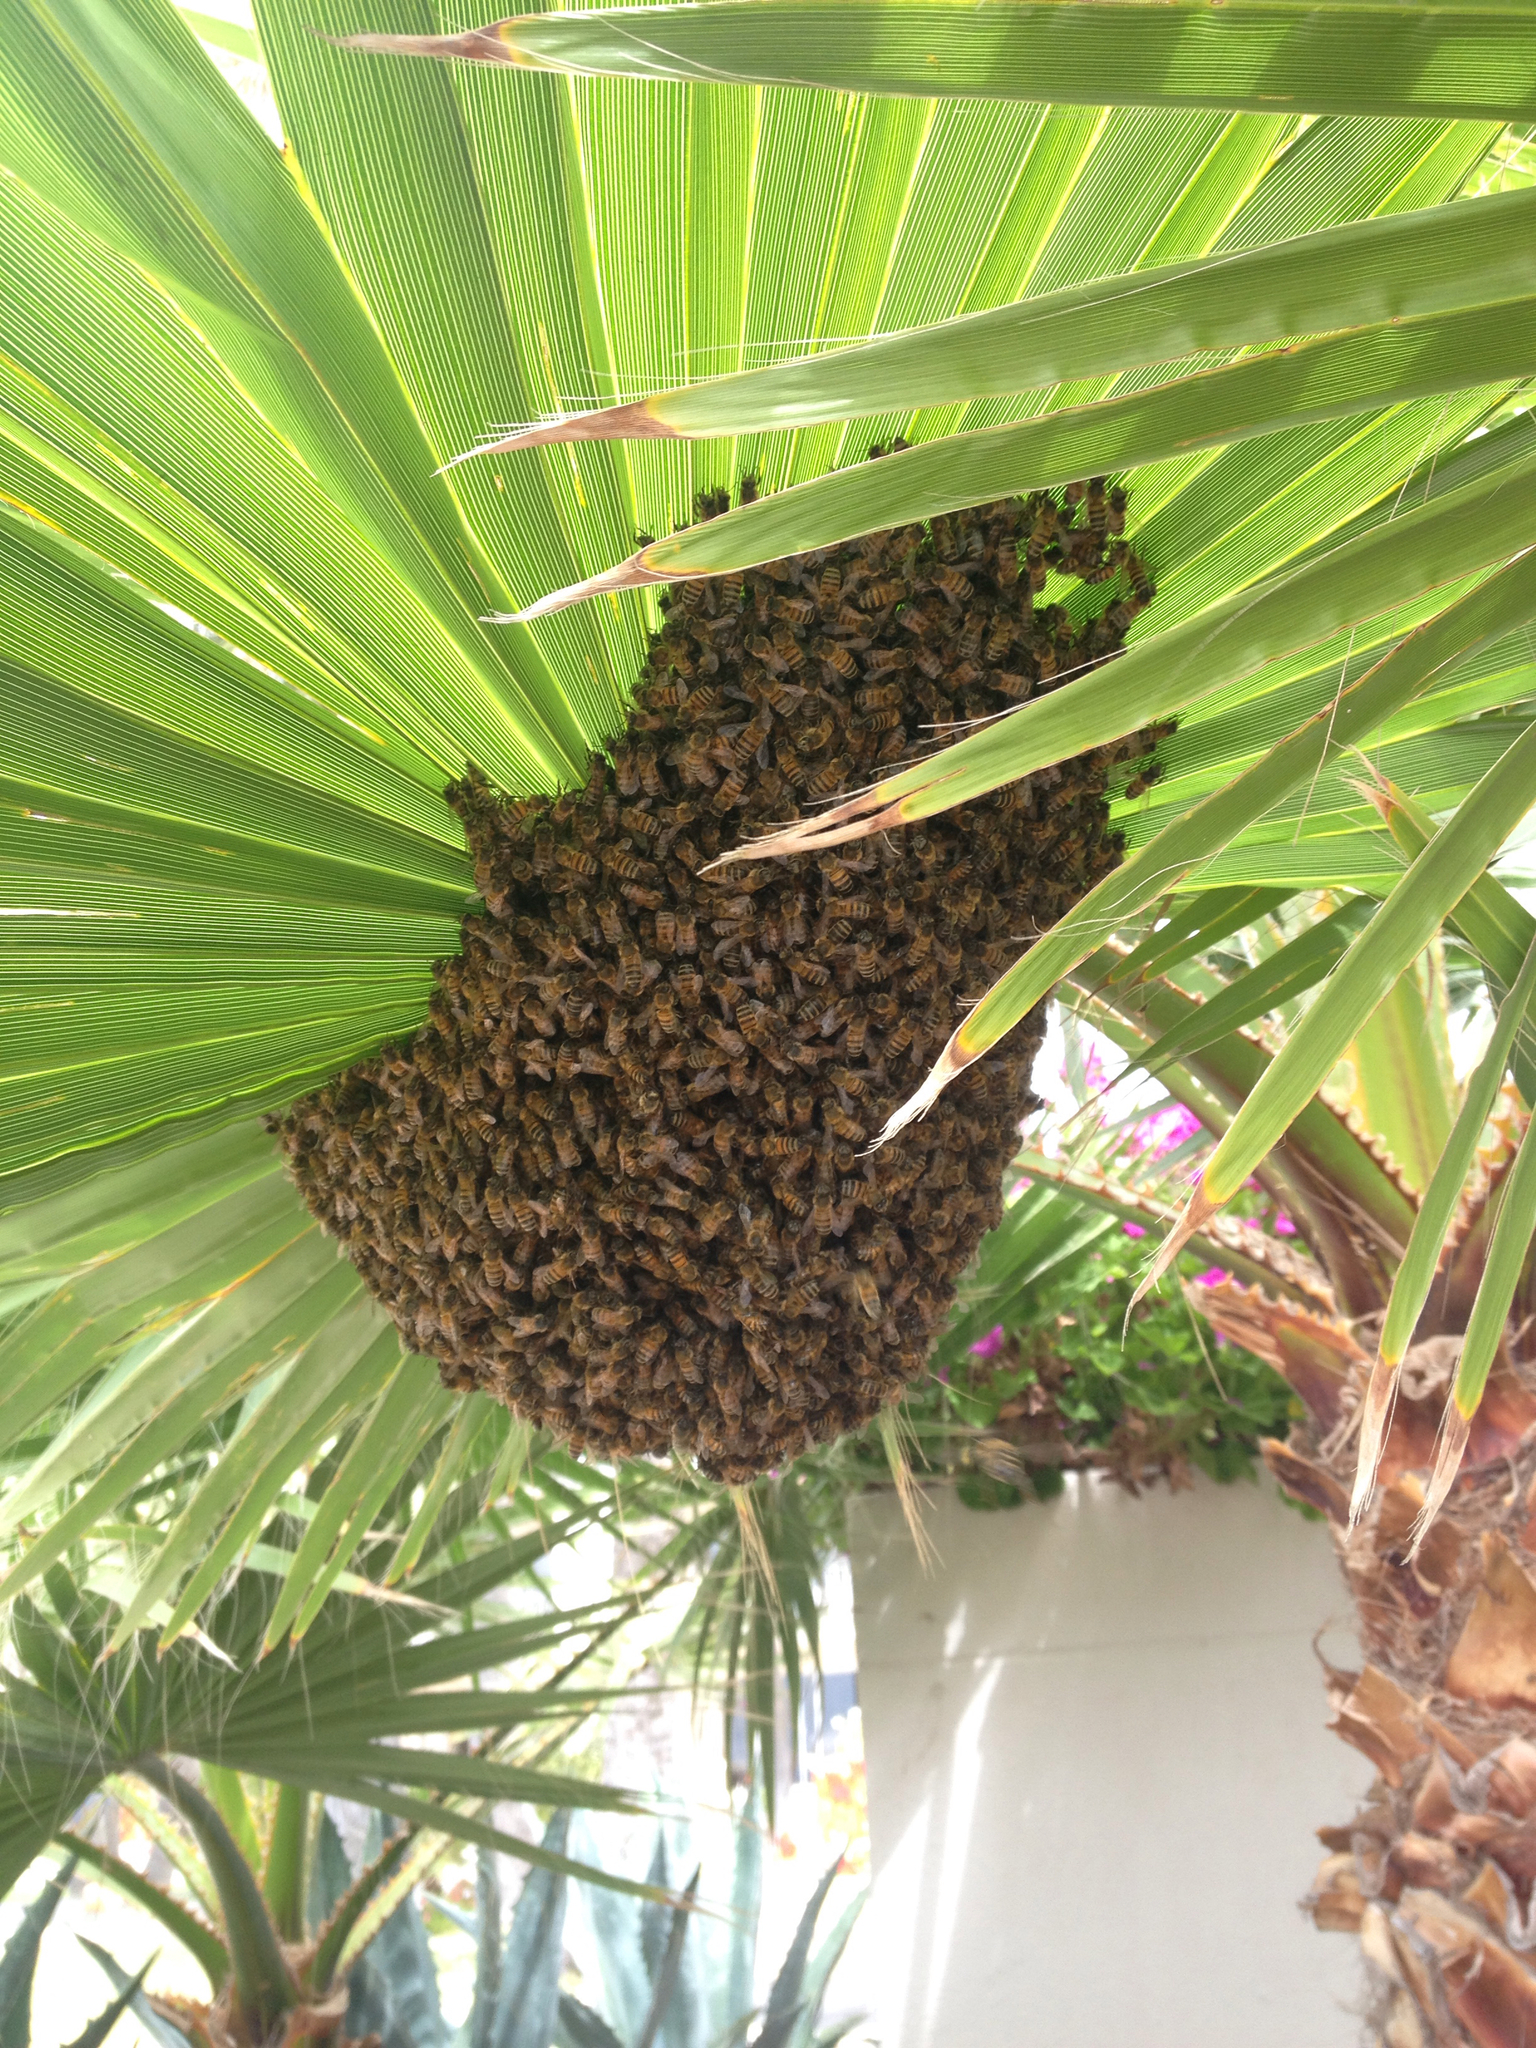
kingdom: Animalia
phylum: Arthropoda
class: Insecta
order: Hymenoptera
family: Apidae
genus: Apis
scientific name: Apis mellifera
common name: Honey bee
